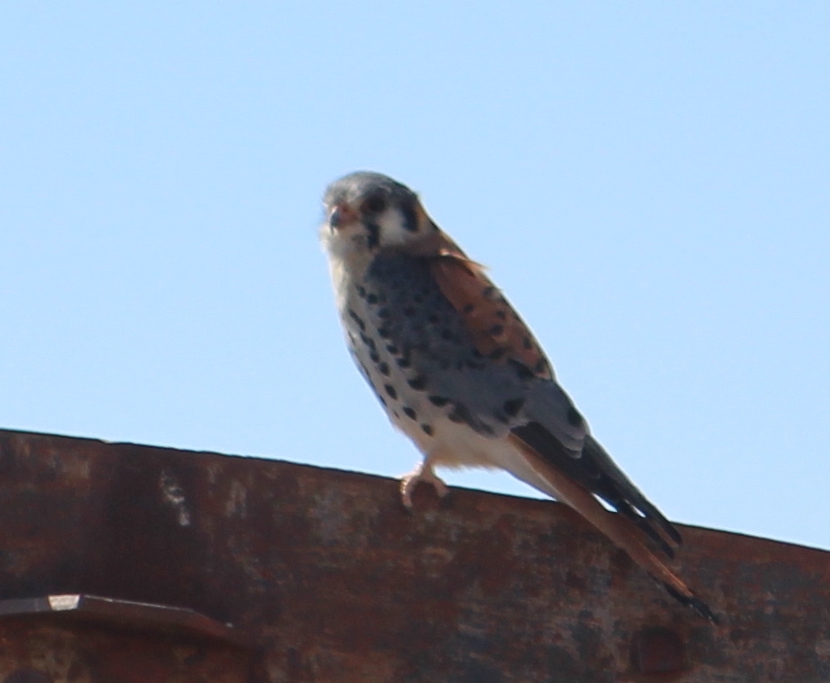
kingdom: Animalia
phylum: Chordata
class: Aves
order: Falconiformes
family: Falconidae
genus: Falco
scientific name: Falco sparverius
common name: American kestrel
